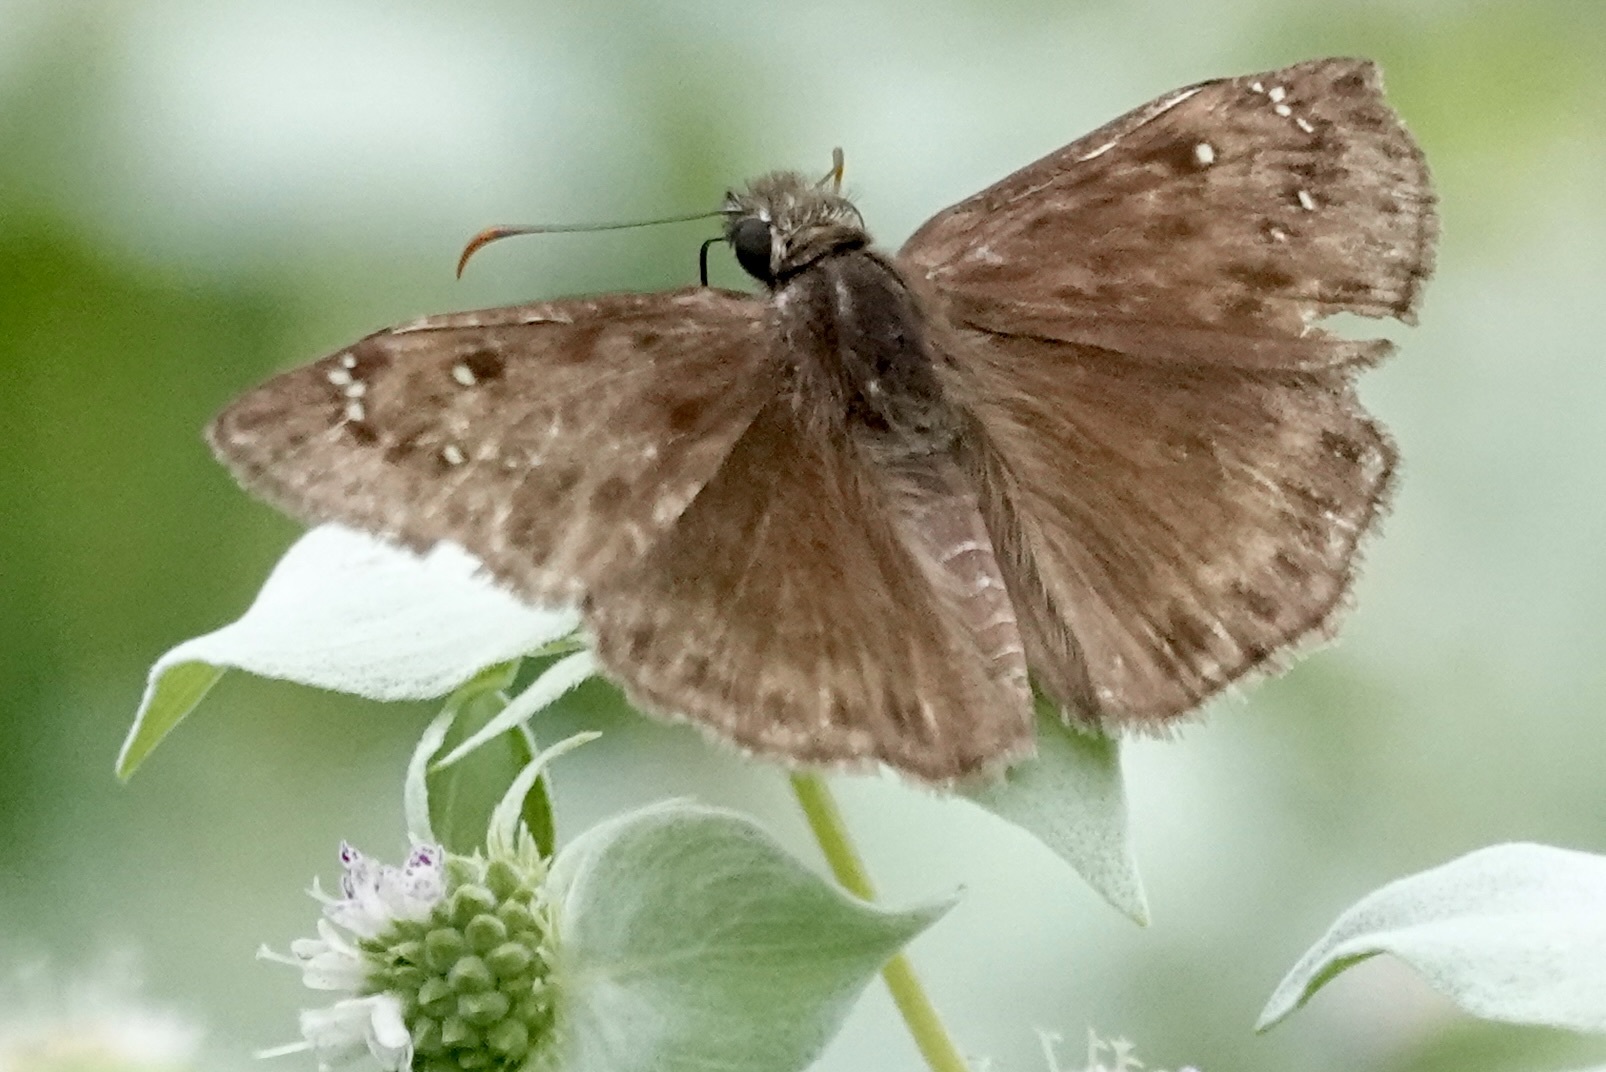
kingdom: Animalia
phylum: Arthropoda
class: Insecta
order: Lepidoptera
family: Hesperiidae
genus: Erynnis
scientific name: Erynnis horatius
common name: Horace's duskywing
